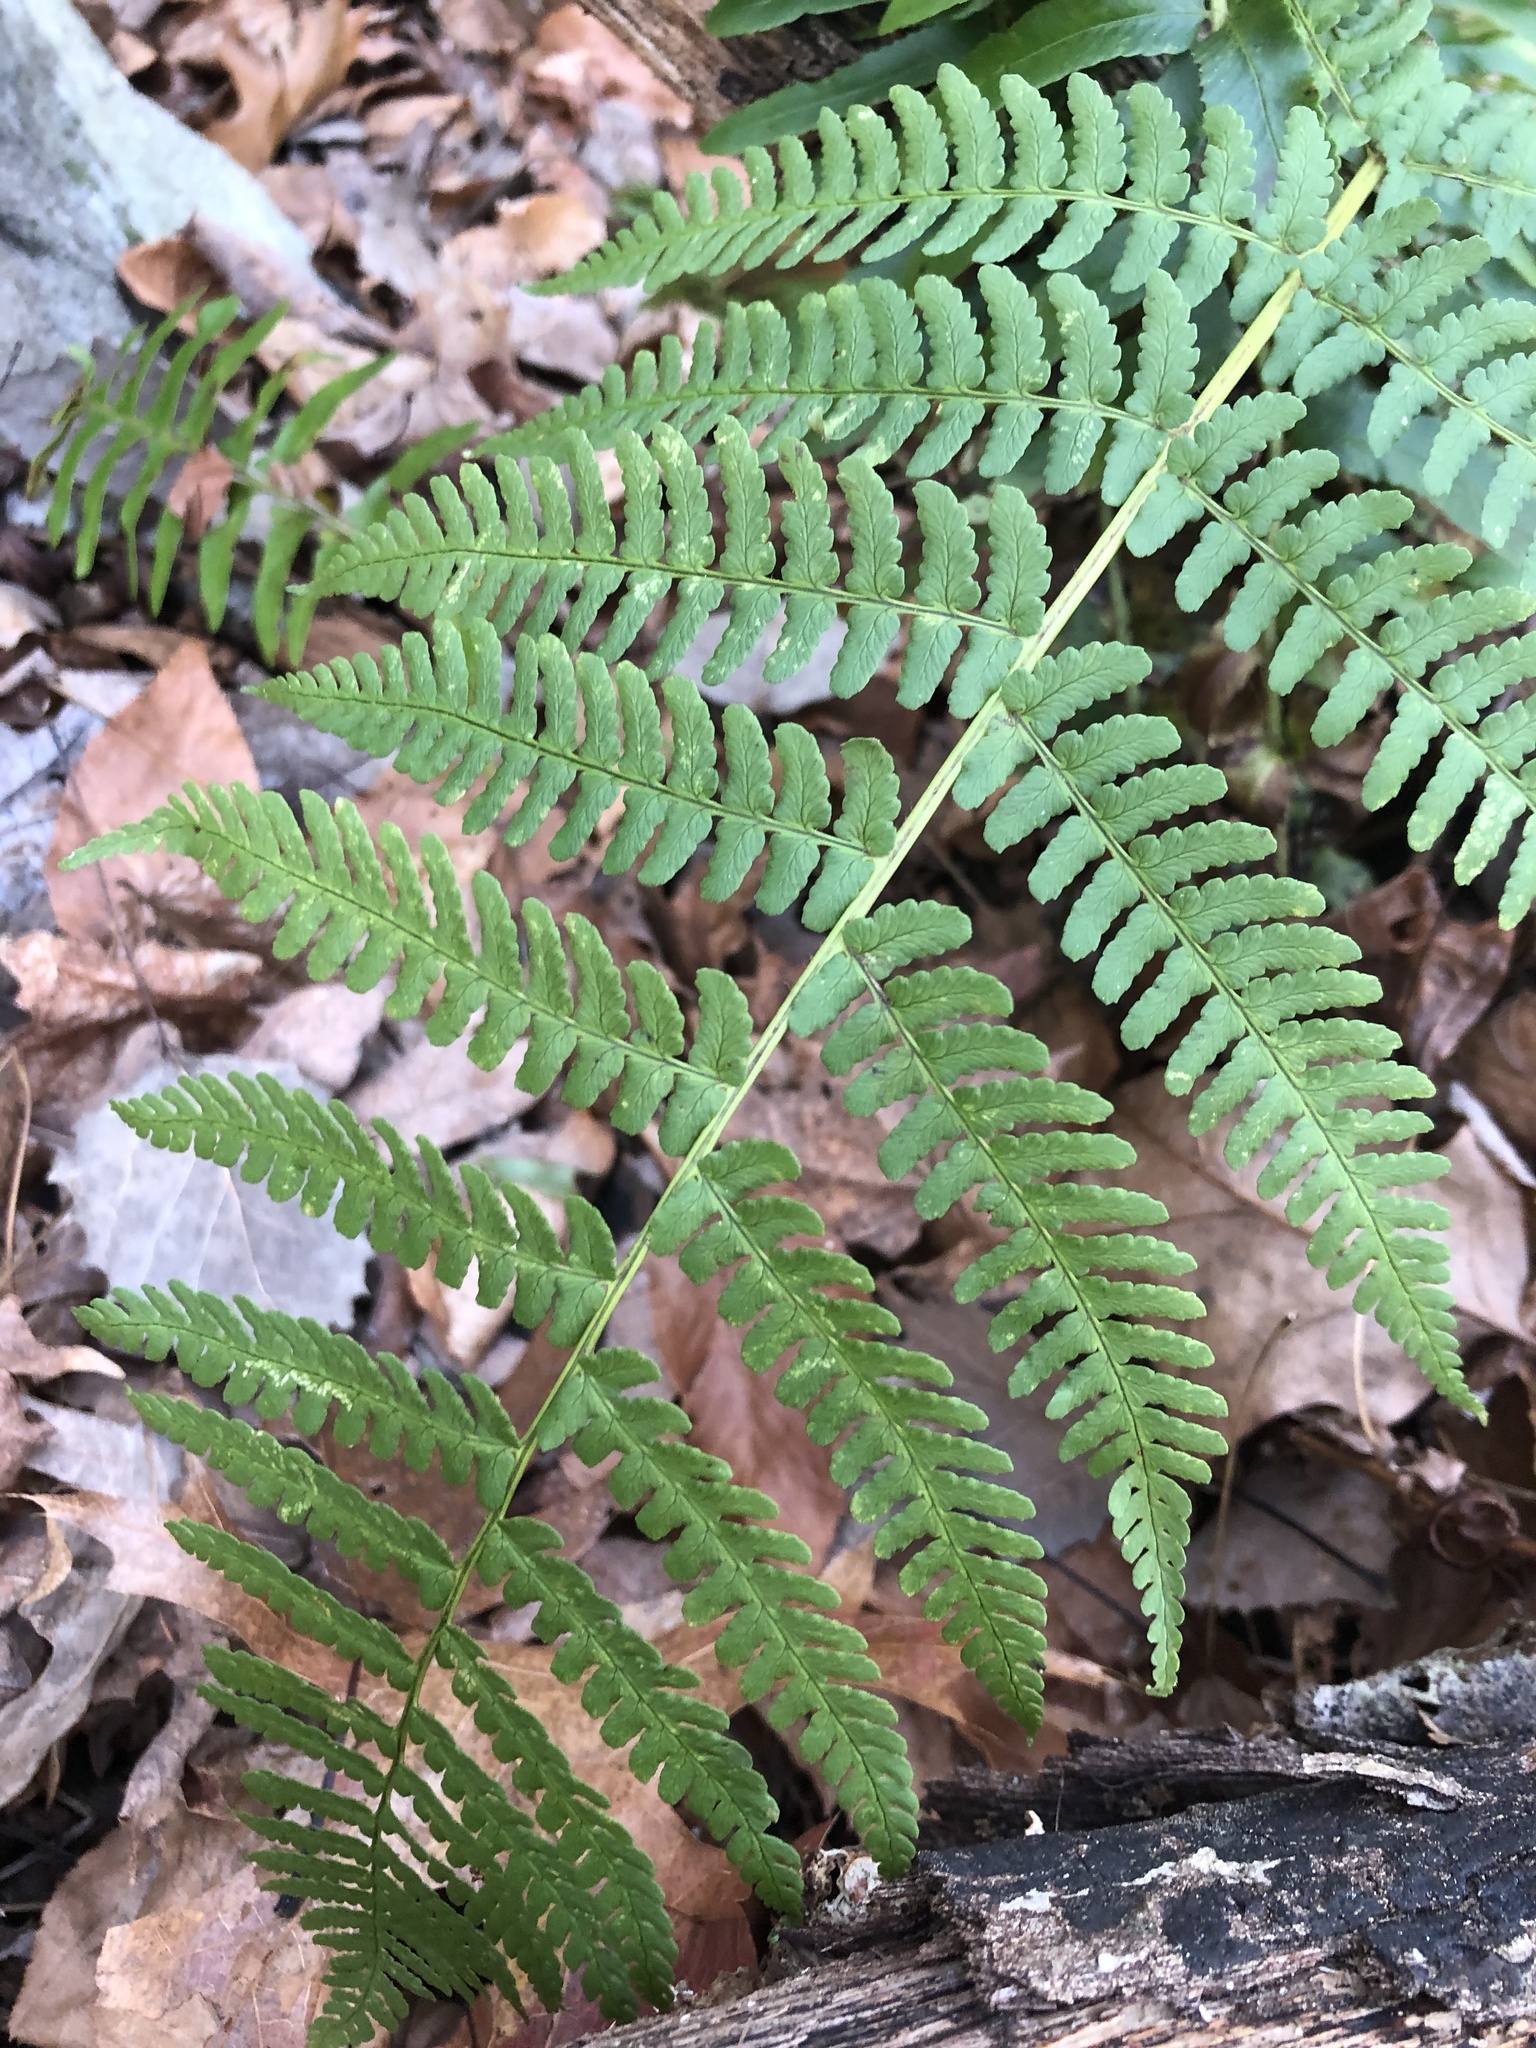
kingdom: Plantae
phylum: Tracheophyta
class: Polypodiopsida
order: Polypodiales
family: Dryopteridaceae
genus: Dryopteris
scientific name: Dryopteris marginalis
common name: Marginal wood fern
